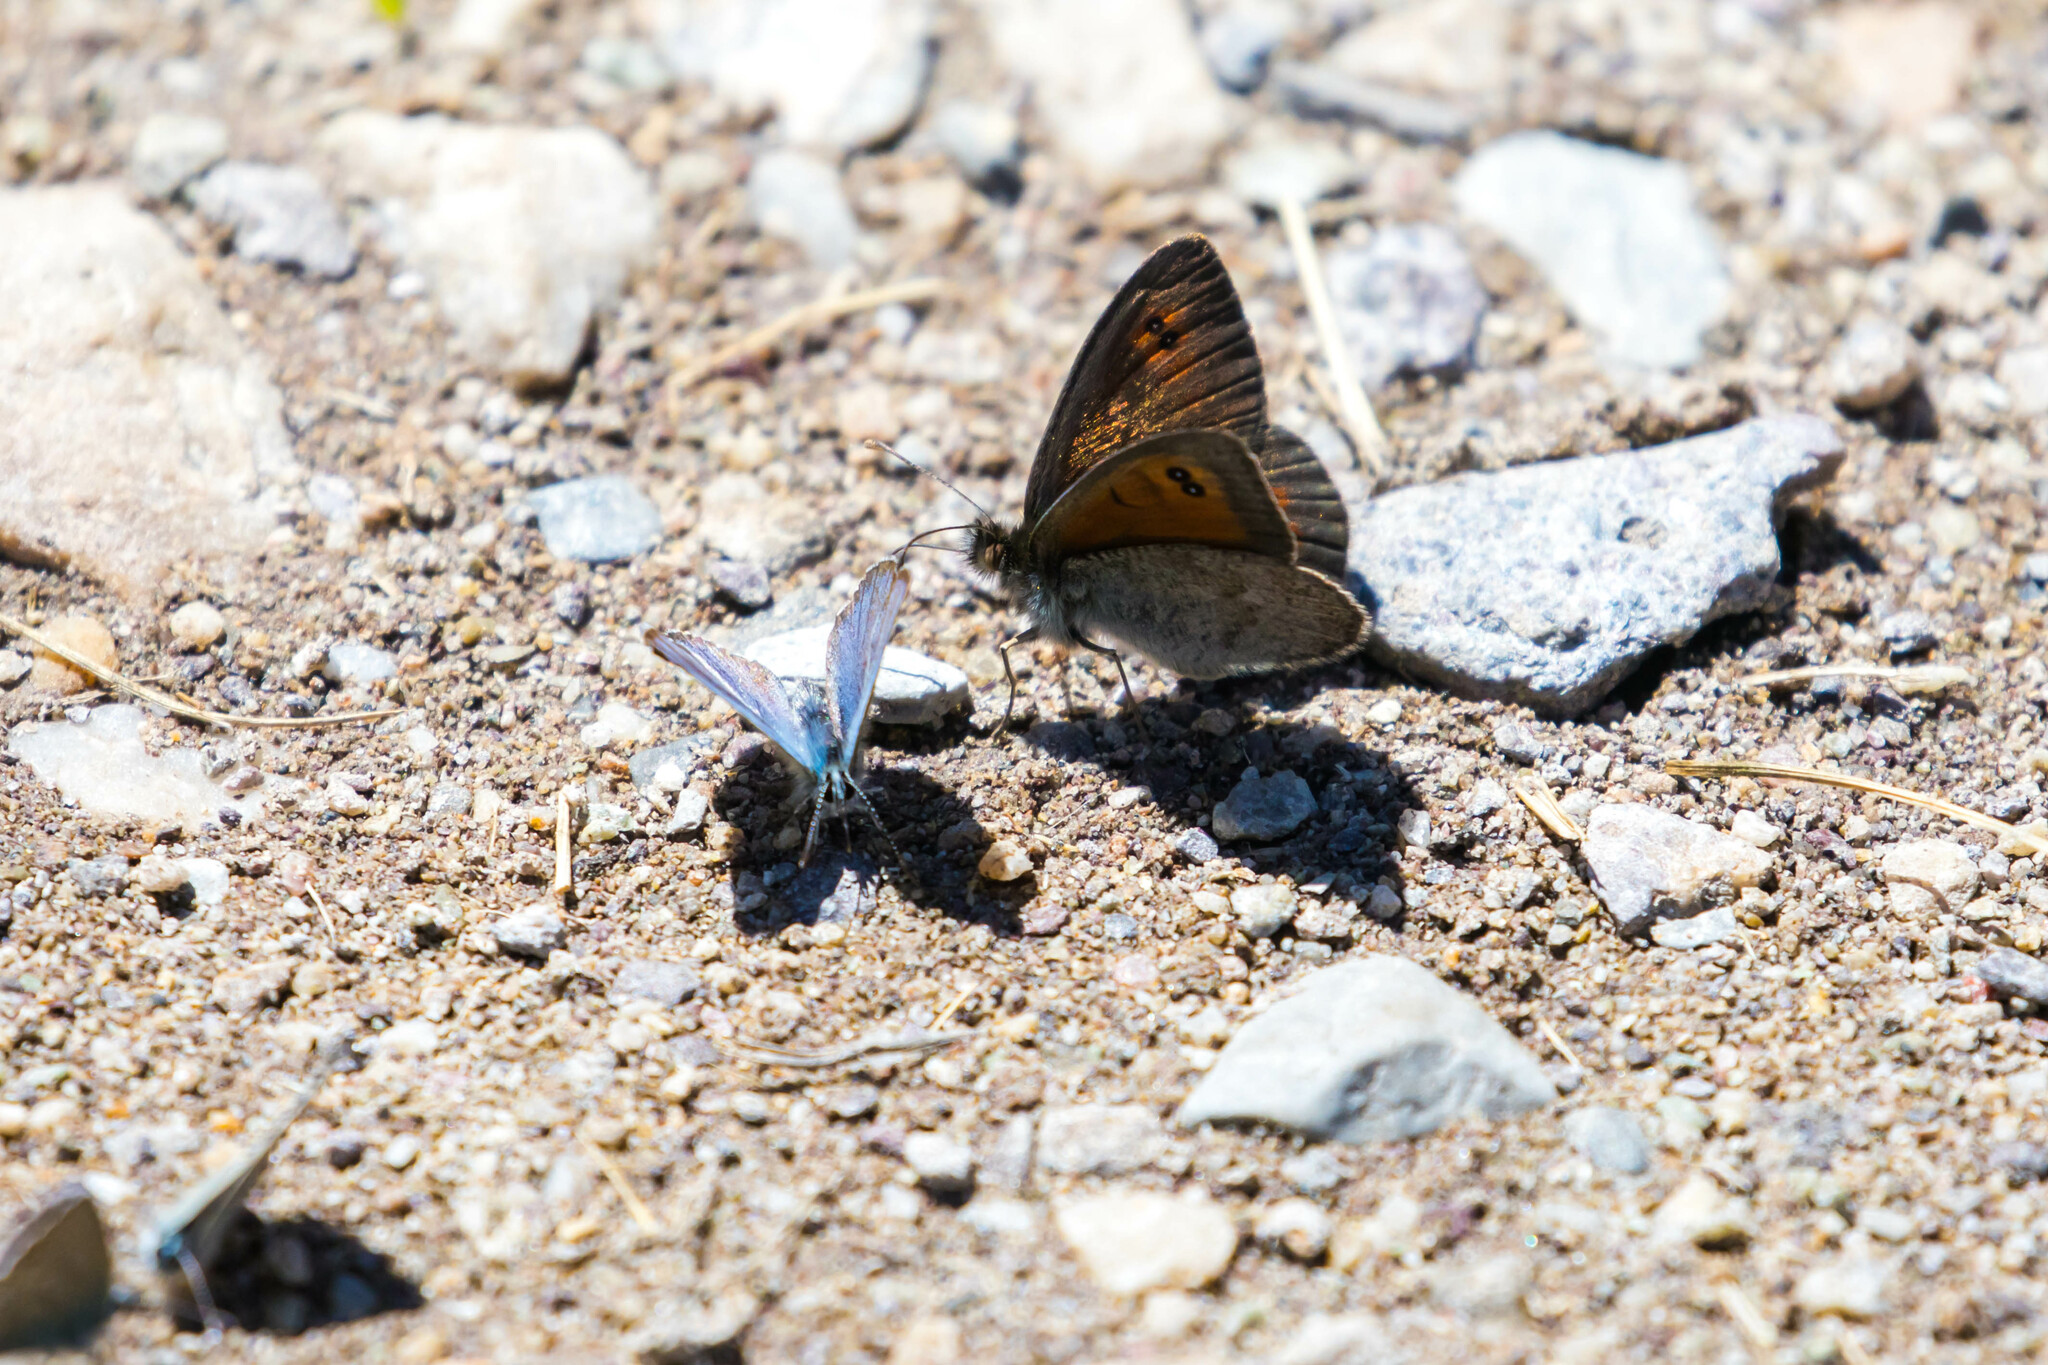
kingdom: Animalia
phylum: Arthropoda
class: Insecta
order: Lepidoptera
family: Nymphalidae
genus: Erebia
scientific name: Erebia cassioides
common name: Common brassy ringlet
